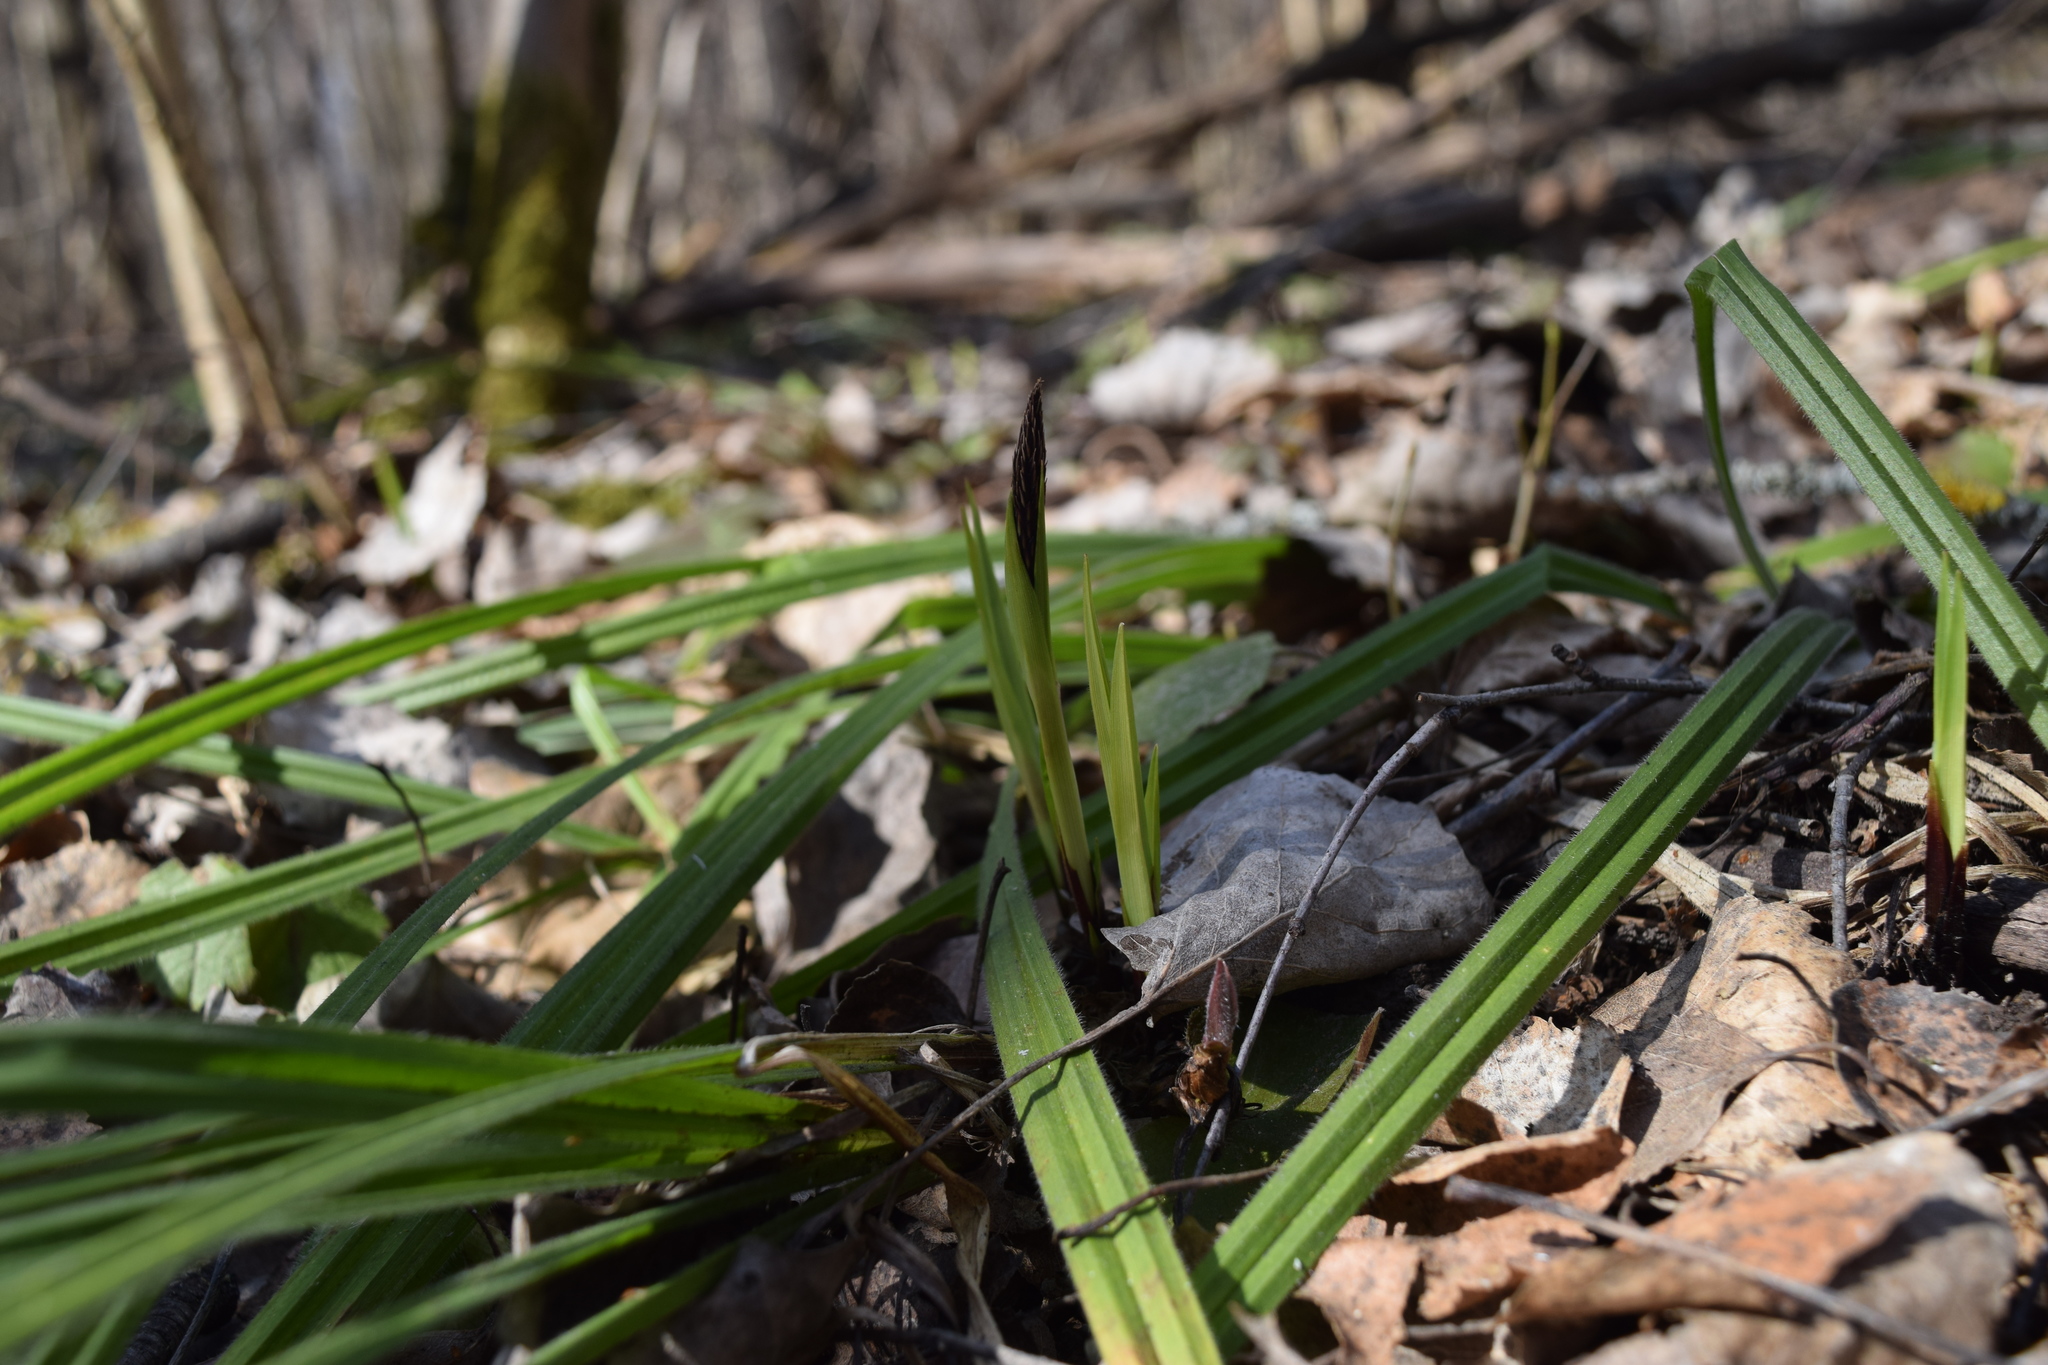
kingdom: Plantae
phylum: Tracheophyta
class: Liliopsida
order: Poales
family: Cyperaceae
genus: Carex
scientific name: Carex pilosa
